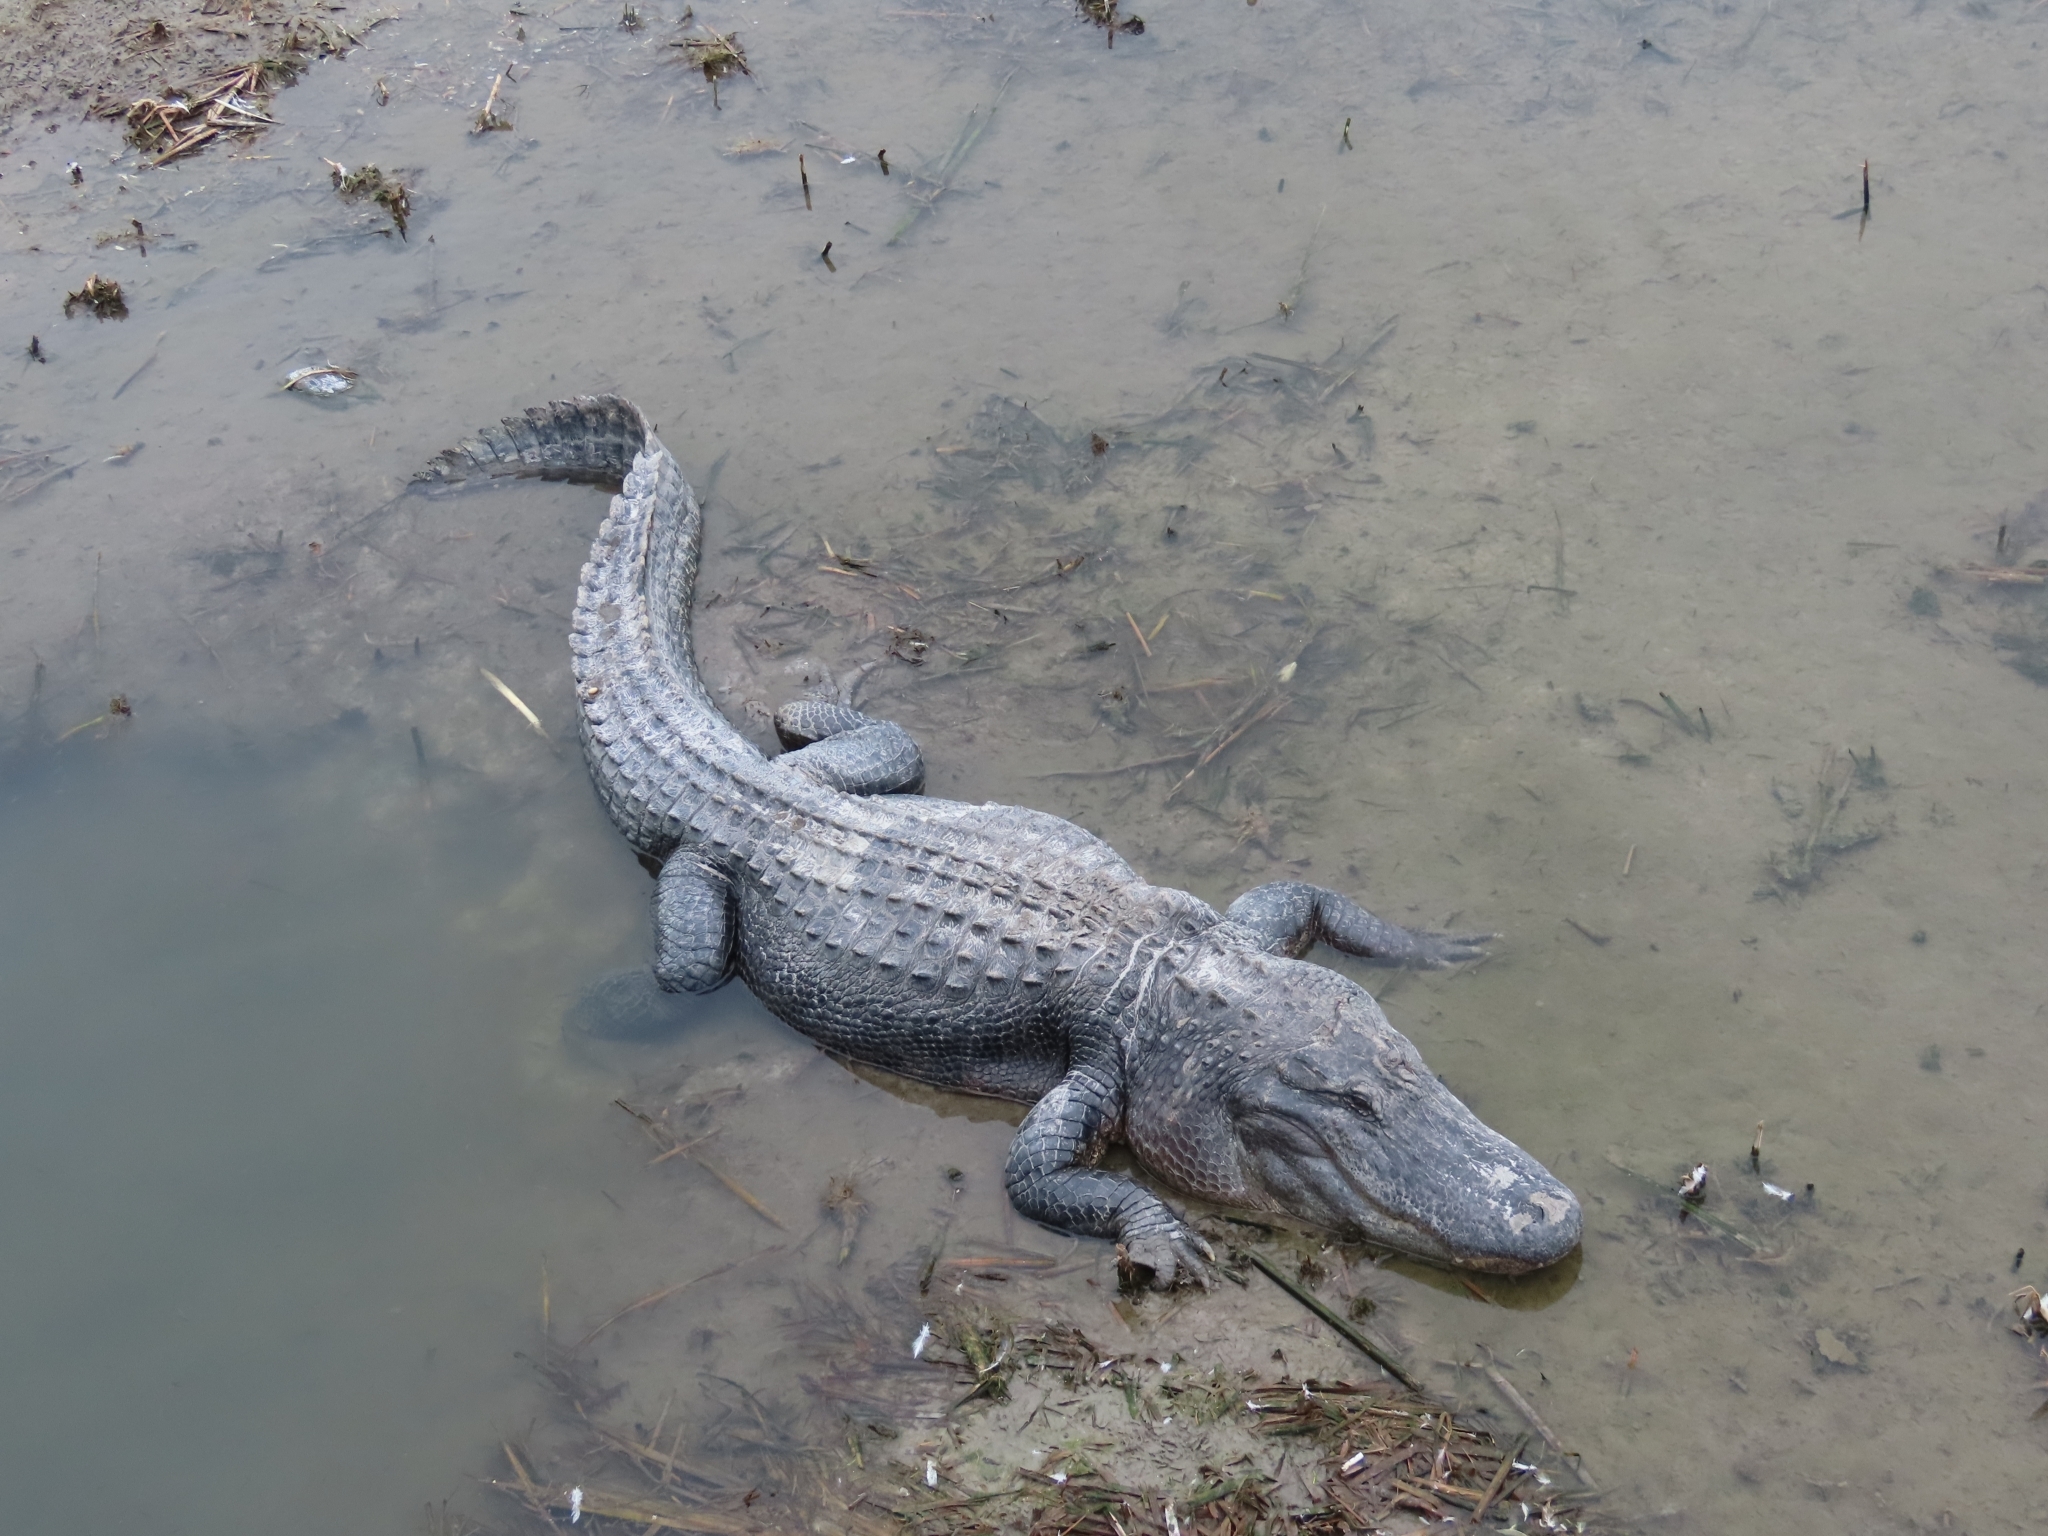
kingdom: Animalia
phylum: Chordata
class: Crocodylia
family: Alligatoridae
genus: Alligator
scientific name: Alligator mississippiensis
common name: American alligator
